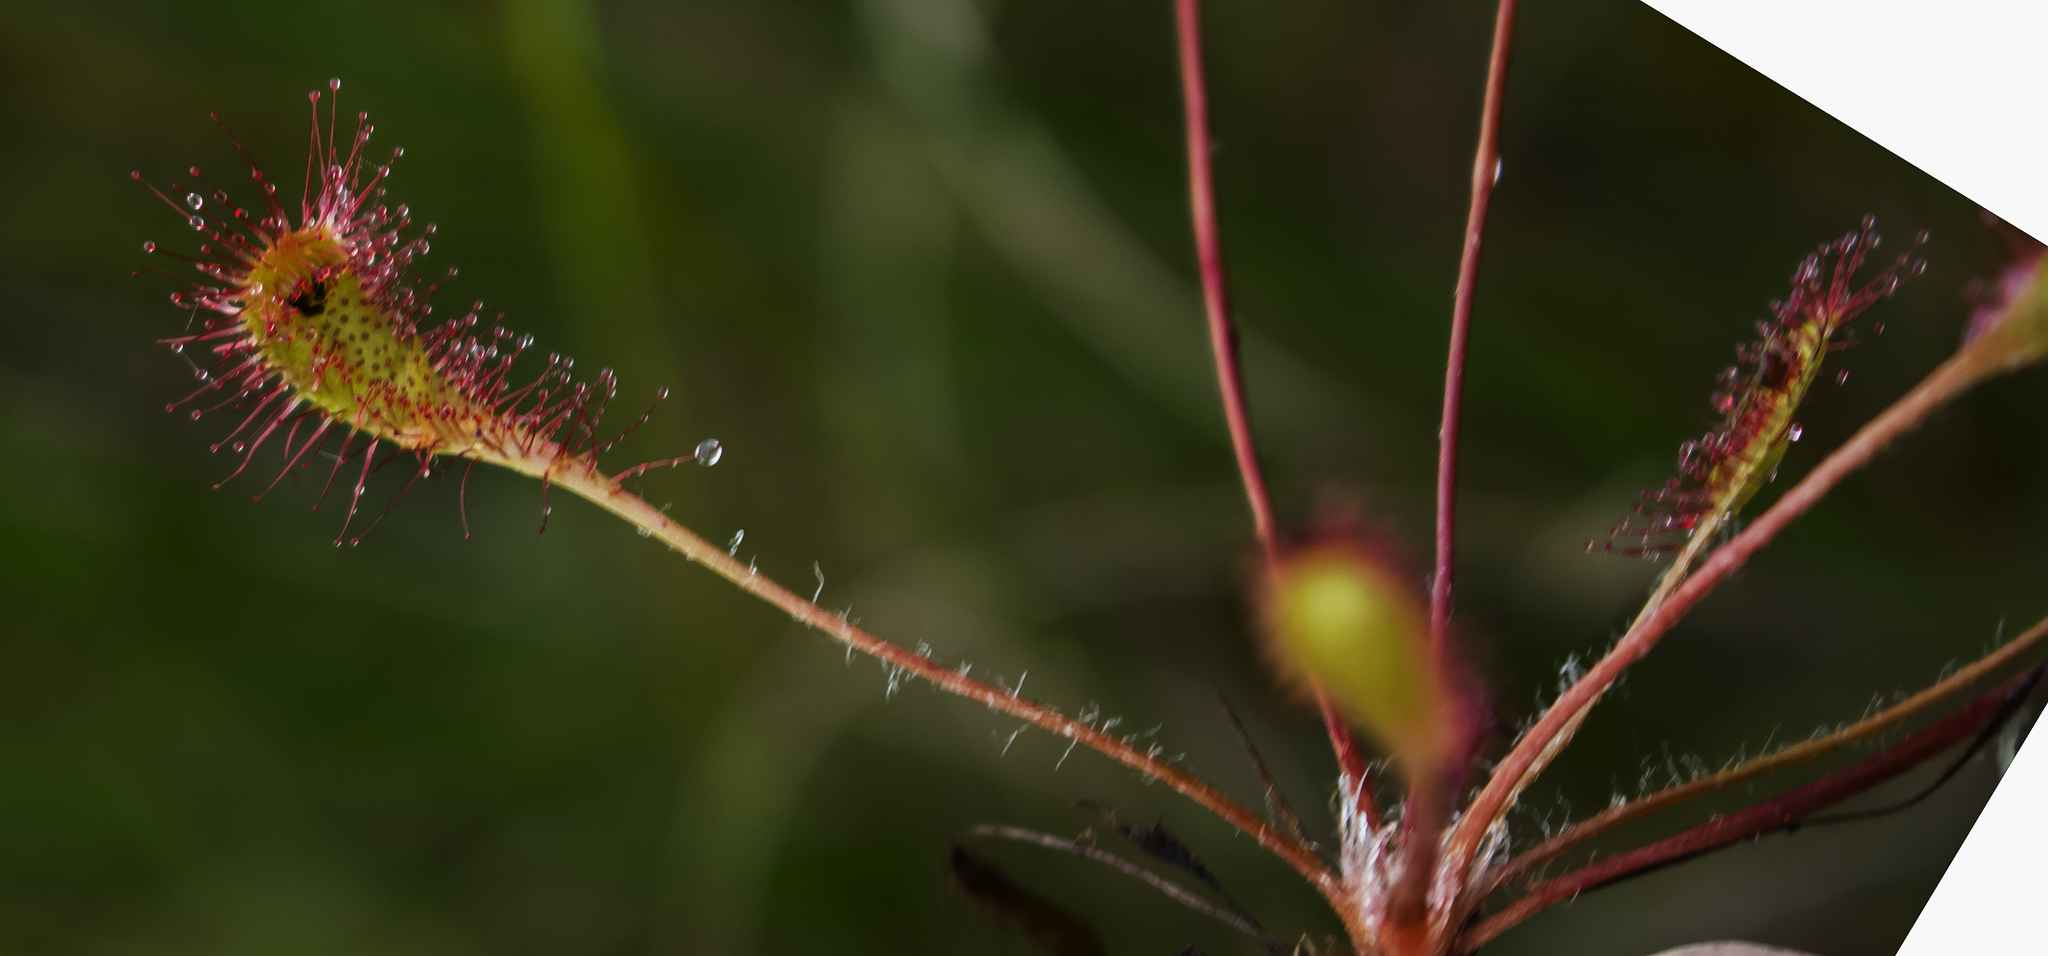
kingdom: Plantae
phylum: Tracheophyta
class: Magnoliopsida
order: Caryophyllales
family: Droseraceae
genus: Drosera
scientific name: Drosera anglica
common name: Great sundew
